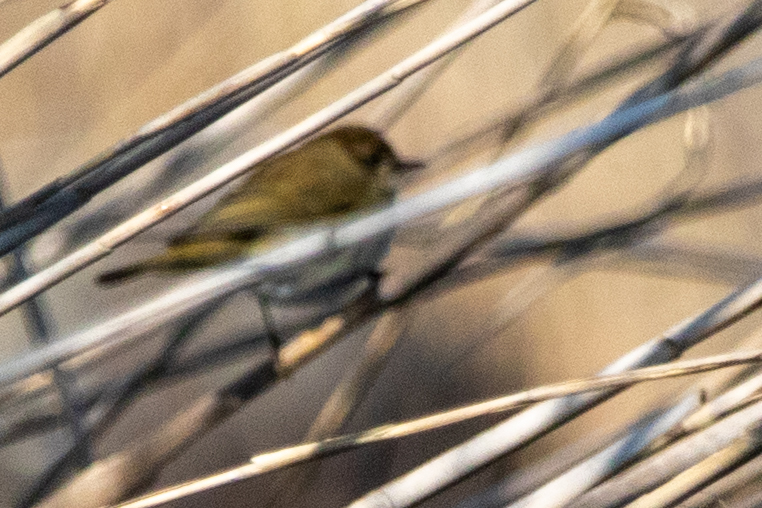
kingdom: Animalia
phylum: Chordata
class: Aves
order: Passeriformes
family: Phylloscopidae
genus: Phylloscopus
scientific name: Phylloscopus collybita
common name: Common chiffchaff
